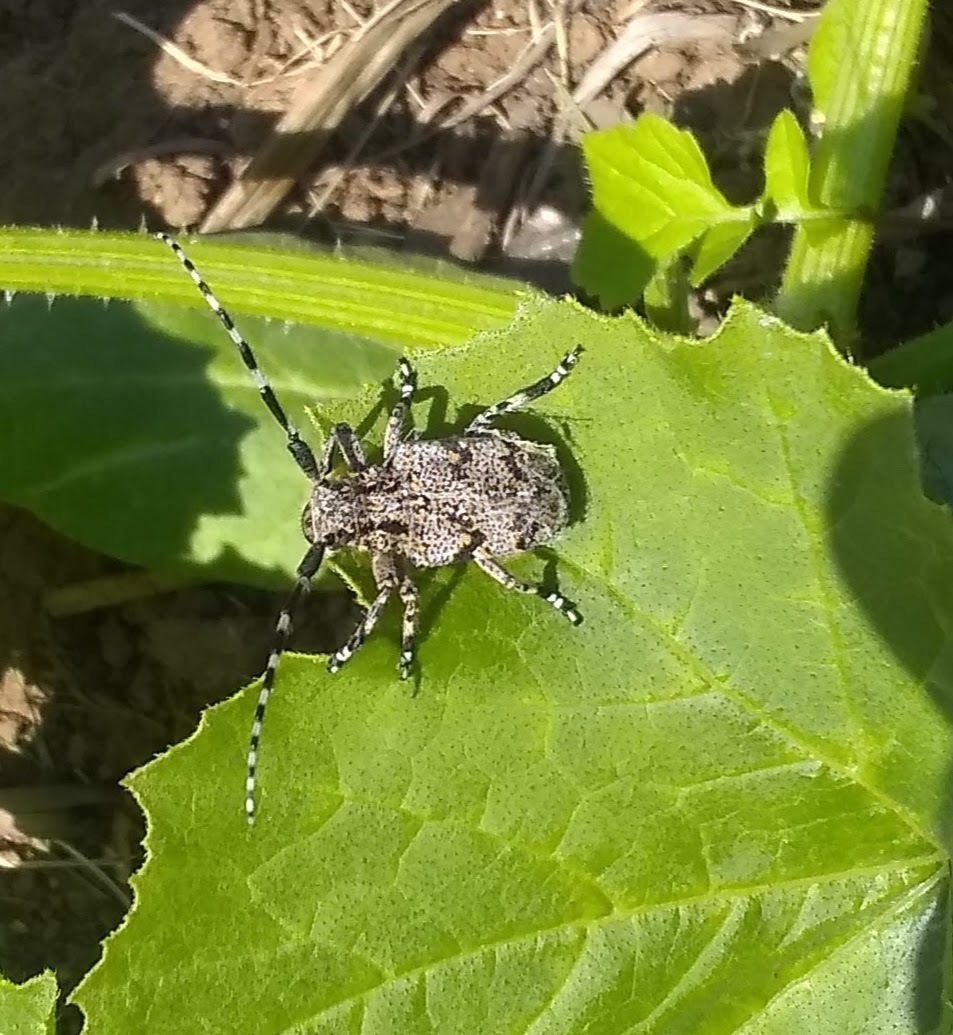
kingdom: Animalia
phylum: Arthropoda
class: Insecta
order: Coleoptera
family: Cerambycidae
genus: Synaphaeta
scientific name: Synaphaeta guexi
